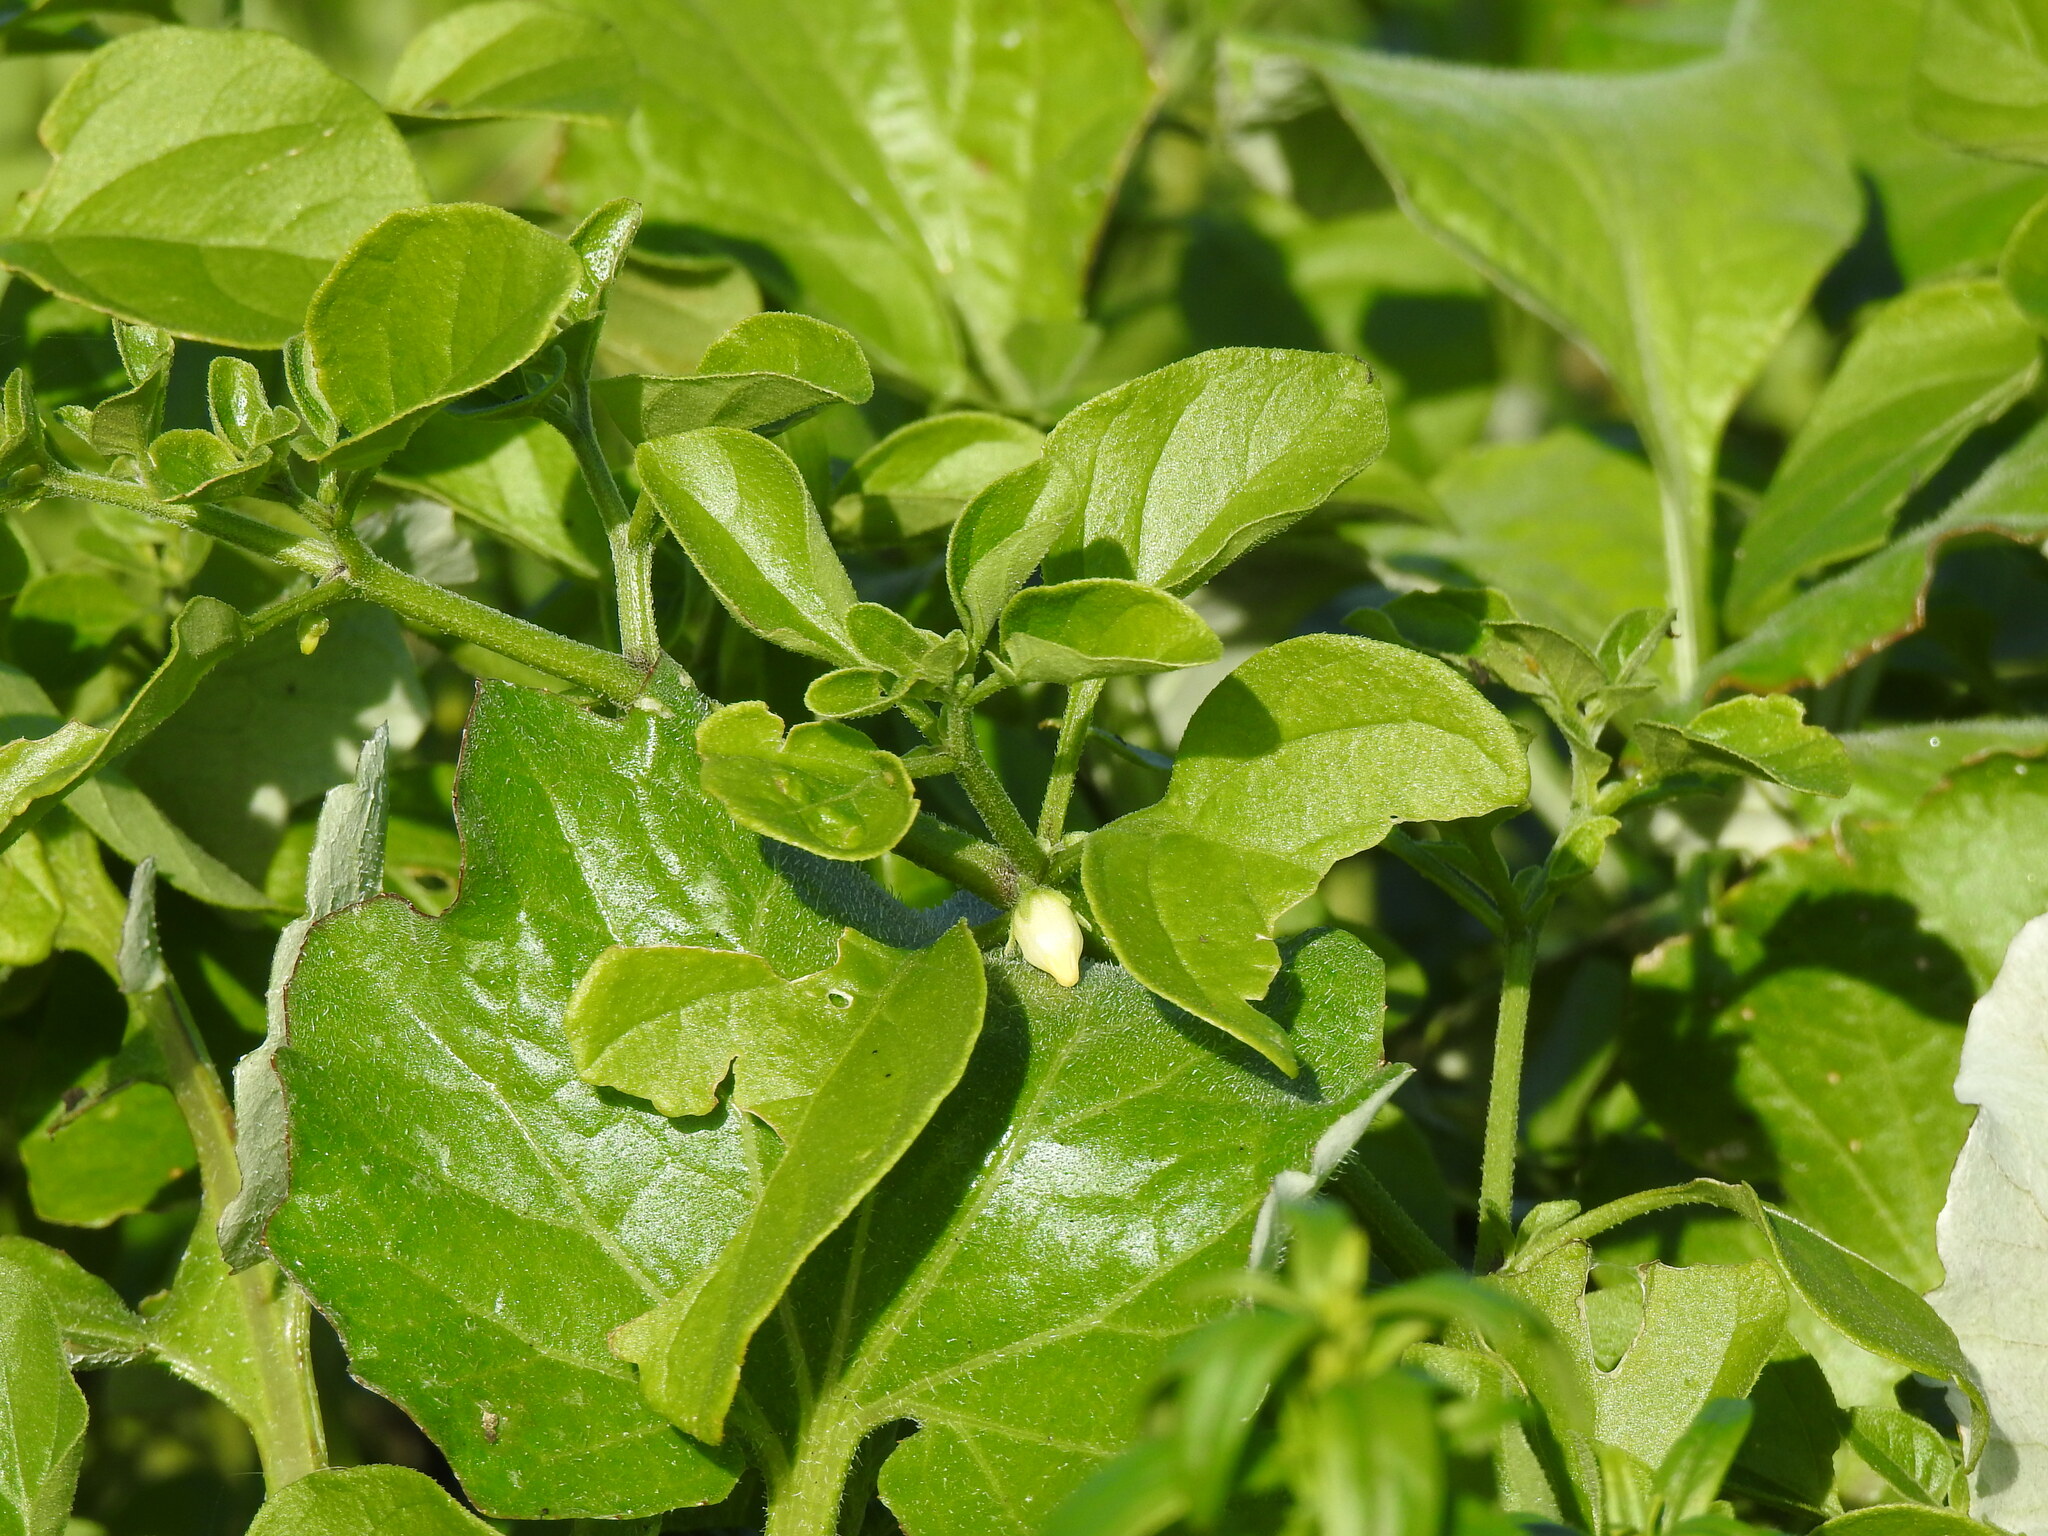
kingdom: Plantae
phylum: Tracheophyta
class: Magnoliopsida
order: Solanales
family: Solanaceae
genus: Salpichroa
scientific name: Salpichroa origanifolia
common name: Lily-of-the-valley-vine
